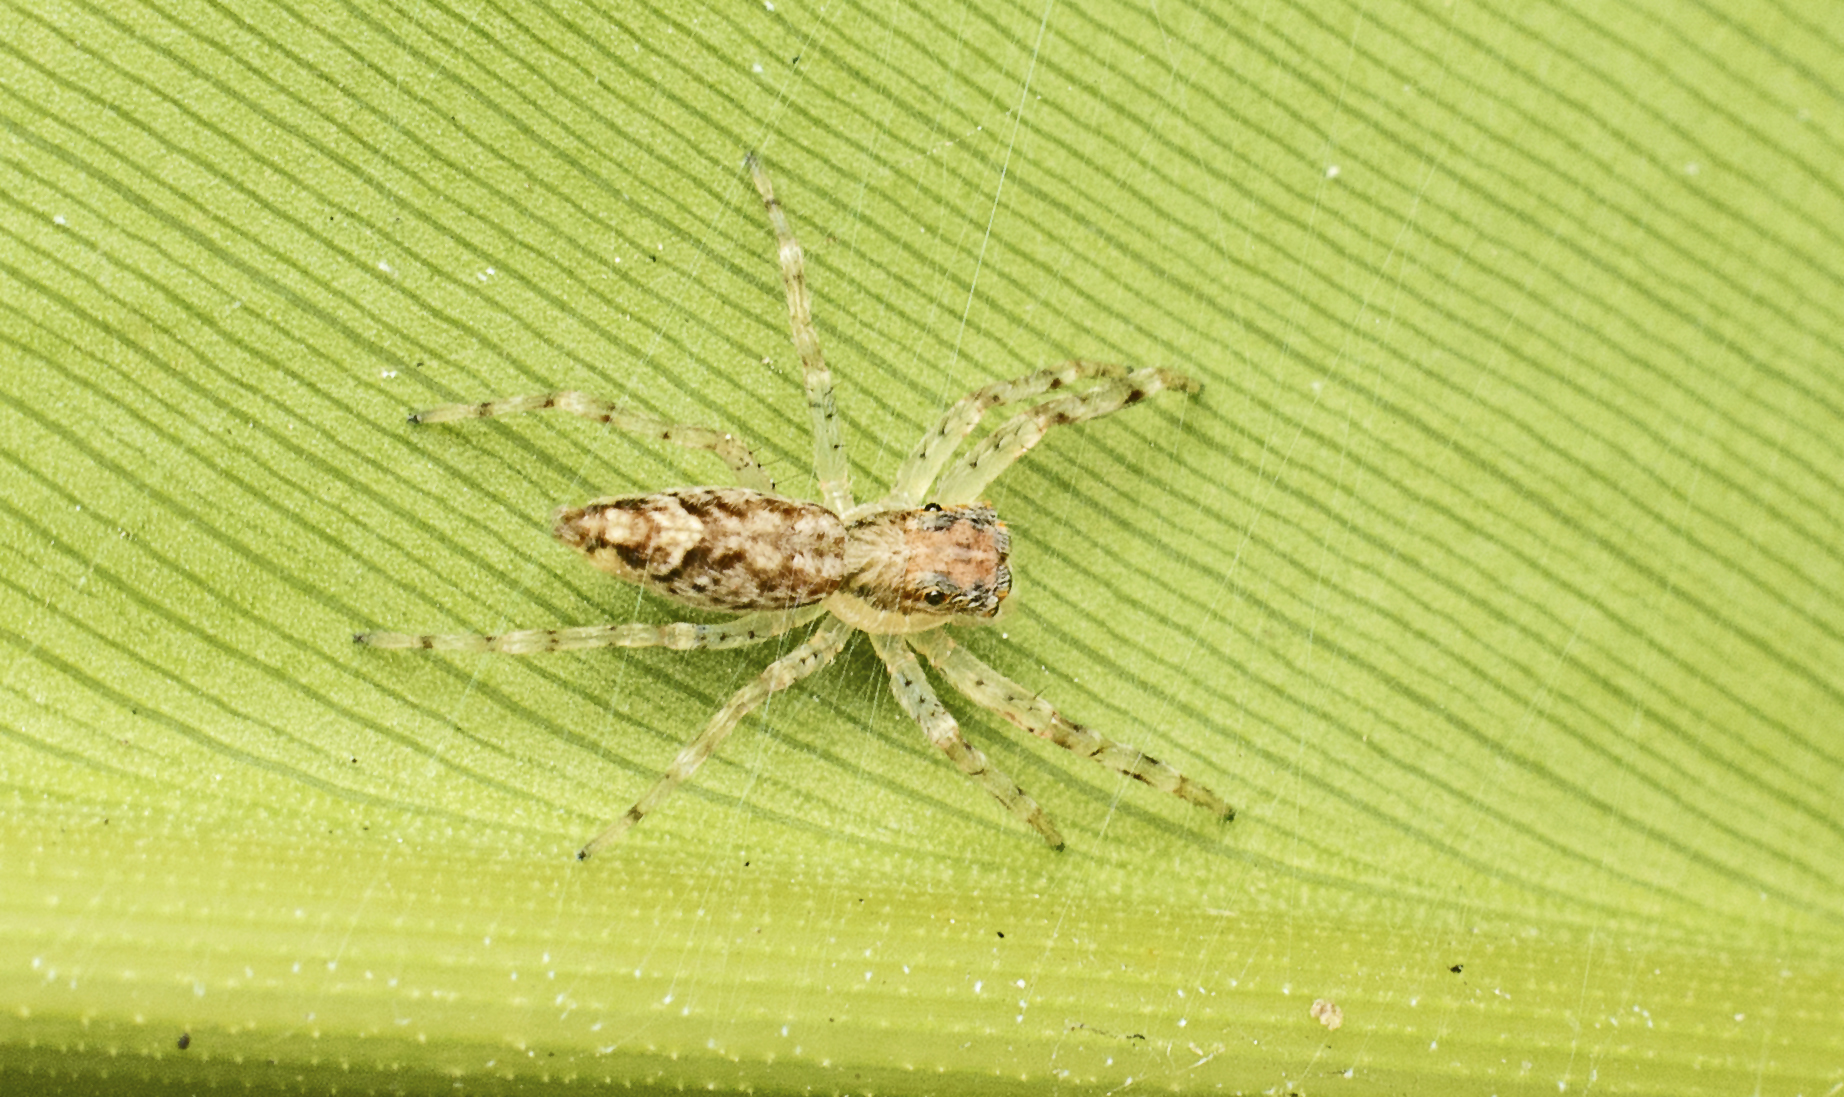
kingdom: Animalia
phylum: Arthropoda
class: Arachnida
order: Araneae
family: Salticidae
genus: Helpis
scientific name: Helpis minitabunda
